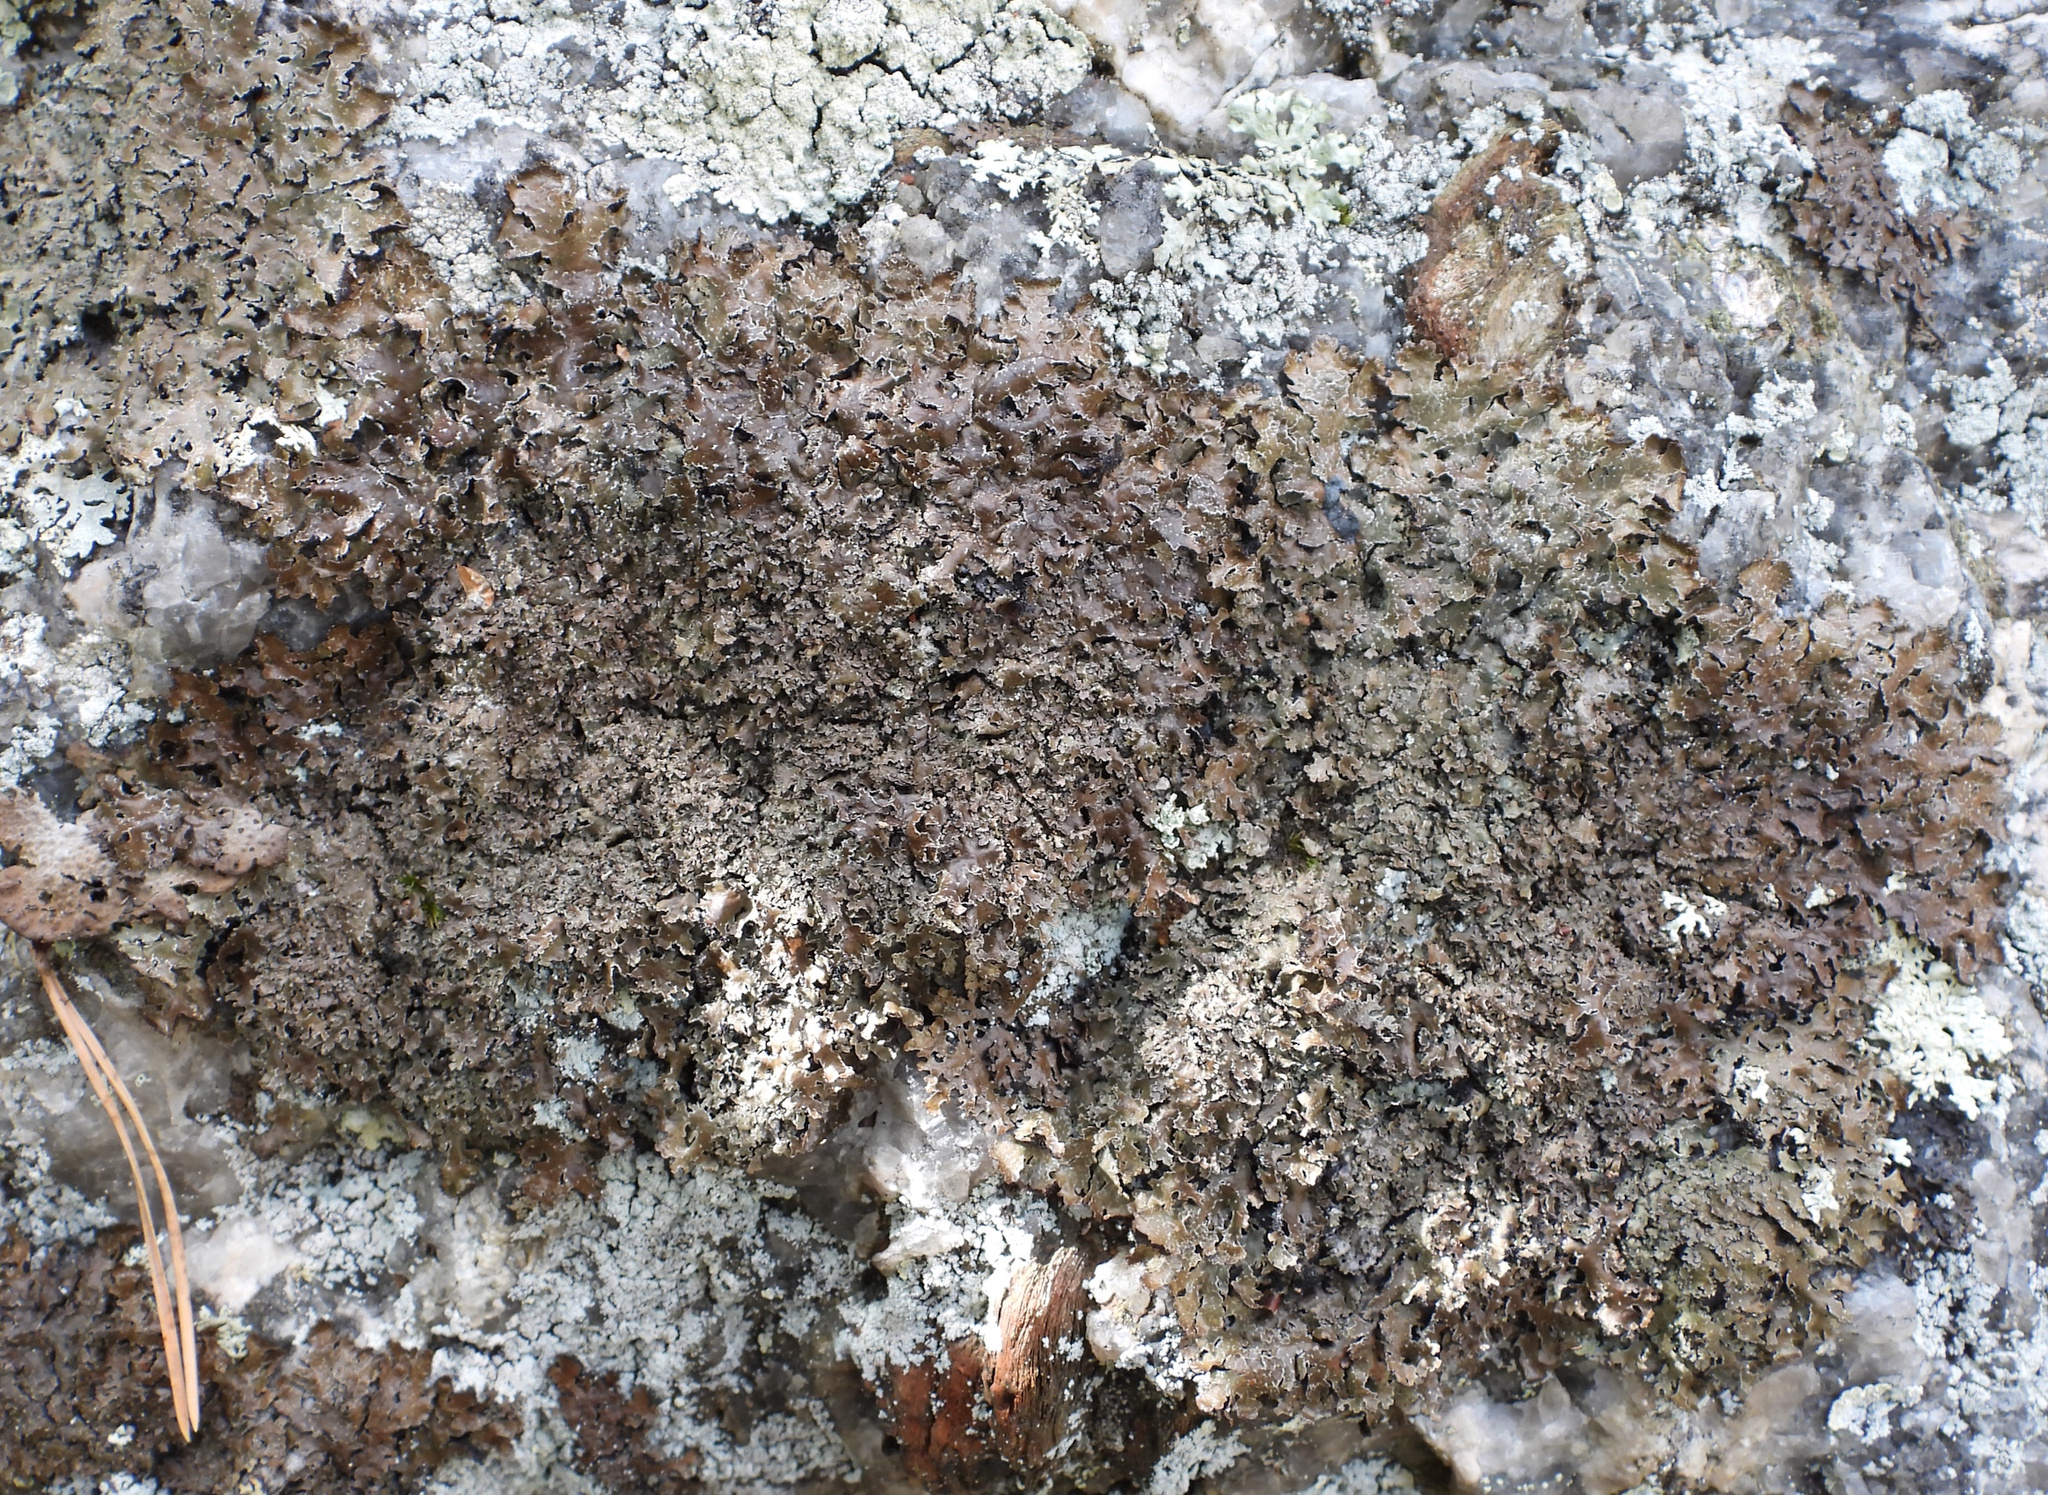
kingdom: Fungi
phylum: Ascomycota
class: Lecanoromycetes
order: Lecanorales
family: Parmeliaceae
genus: Parmelia
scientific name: Parmelia omphalodes
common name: Smoky crottle
